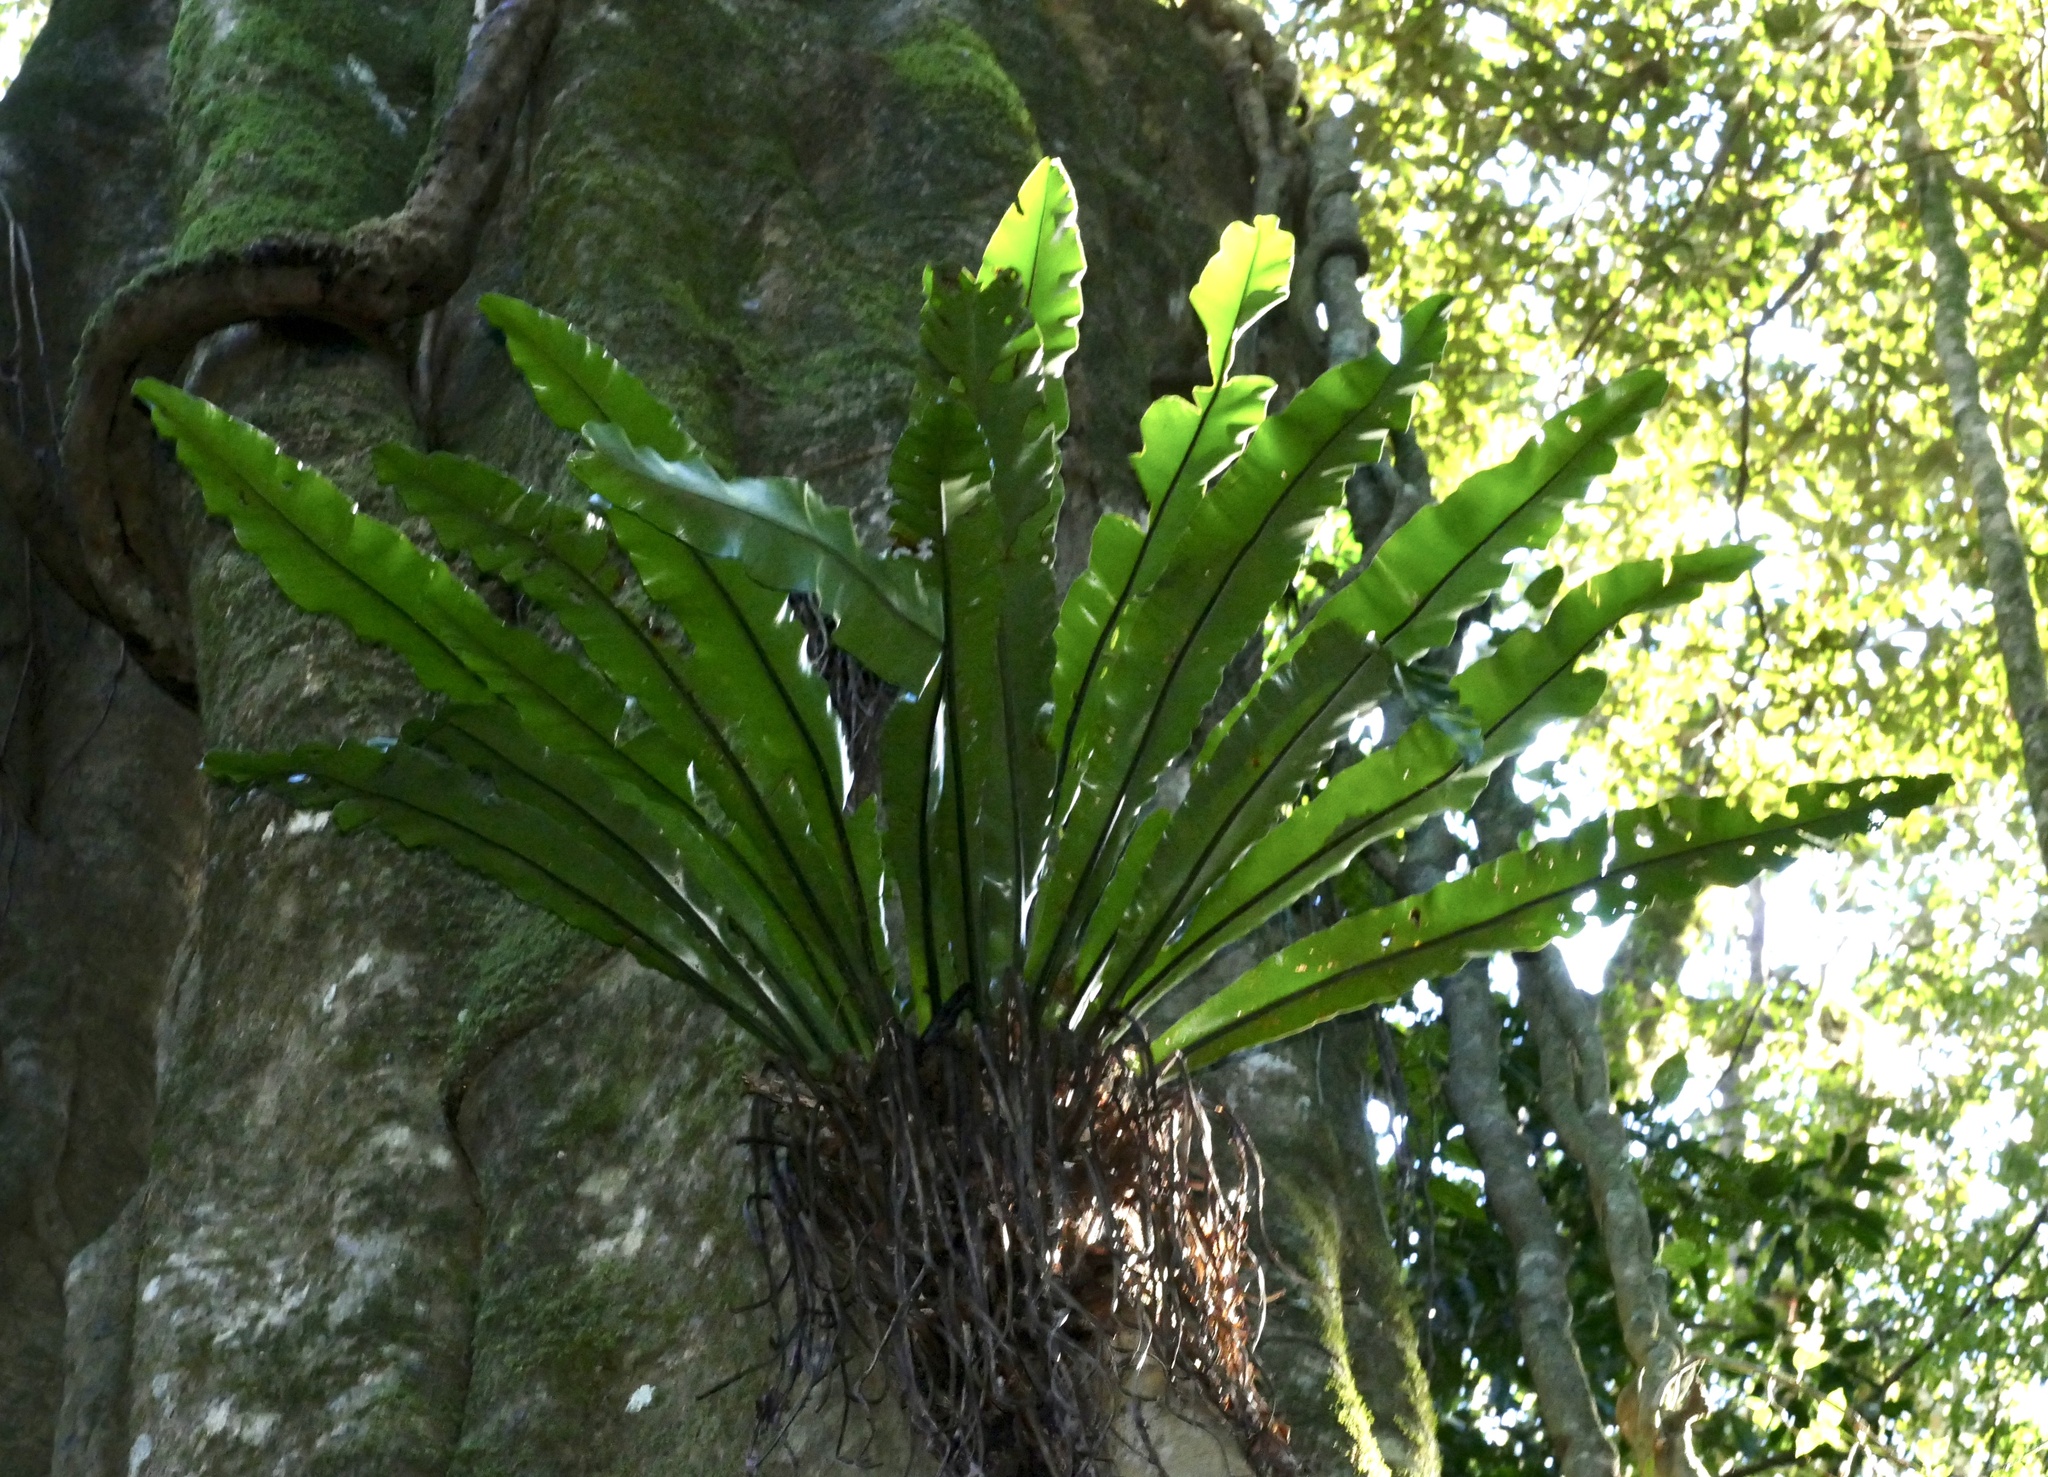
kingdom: Plantae
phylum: Tracheophyta
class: Polypodiopsida
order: Polypodiales
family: Aspleniaceae
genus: Asplenium
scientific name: Asplenium australasicum
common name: Bird's-nest fern
